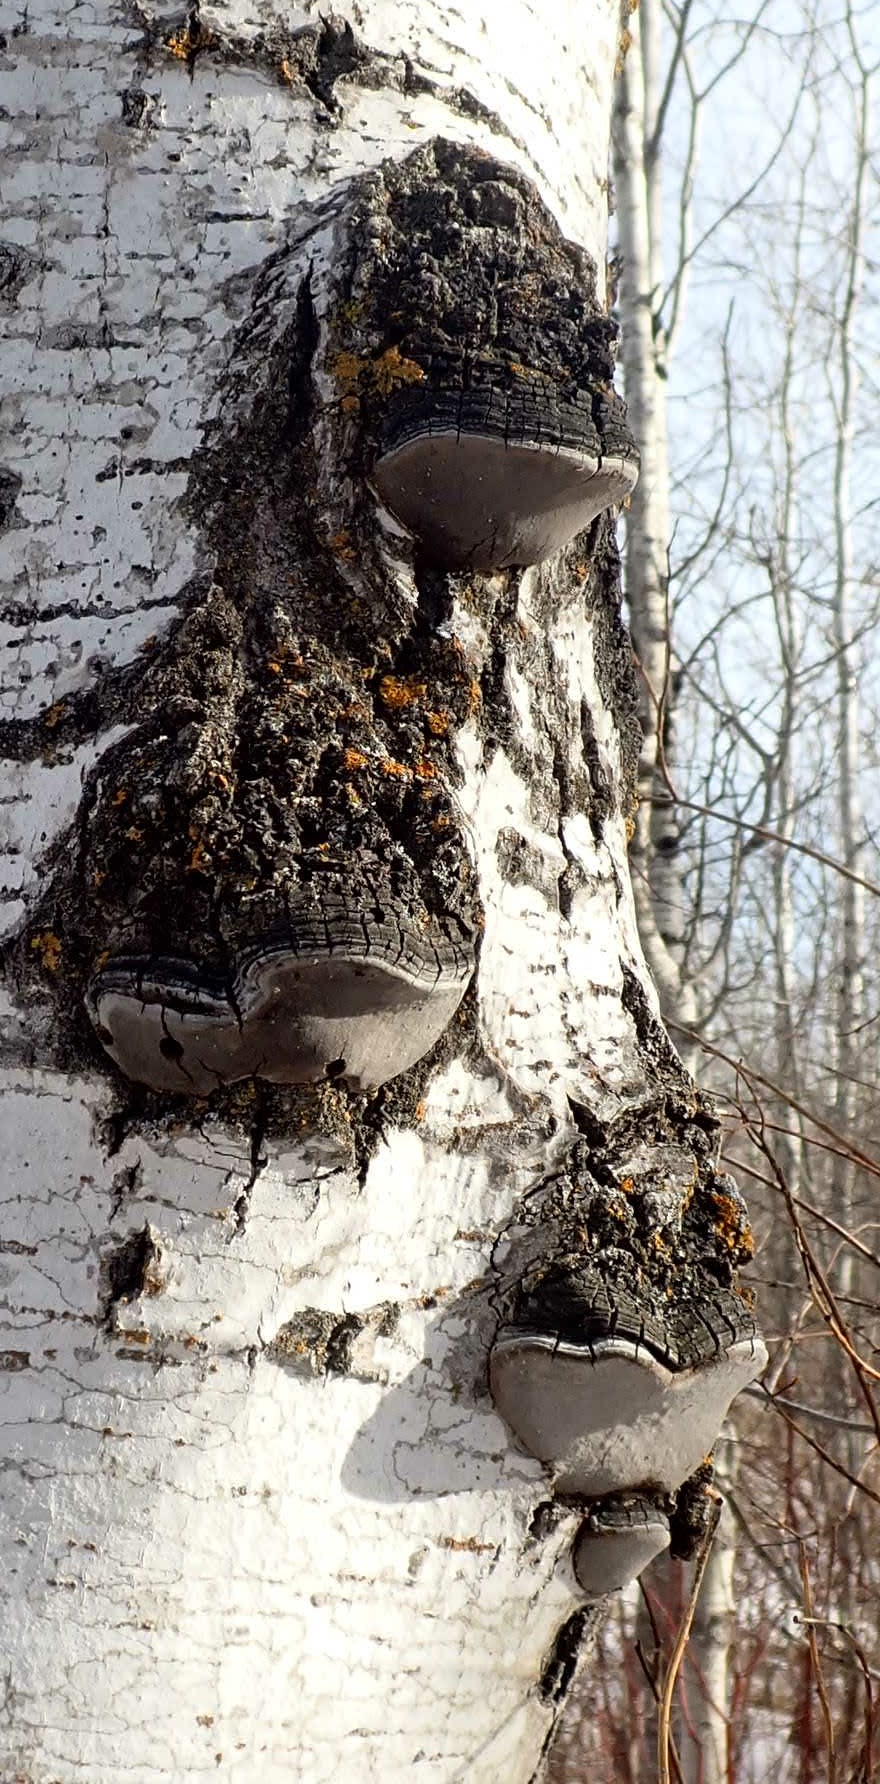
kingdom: Fungi
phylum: Basidiomycota
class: Agaricomycetes
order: Hymenochaetales
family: Hymenochaetaceae
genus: Phellinus
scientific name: Phellinus tremulae
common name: Aspen bracket
